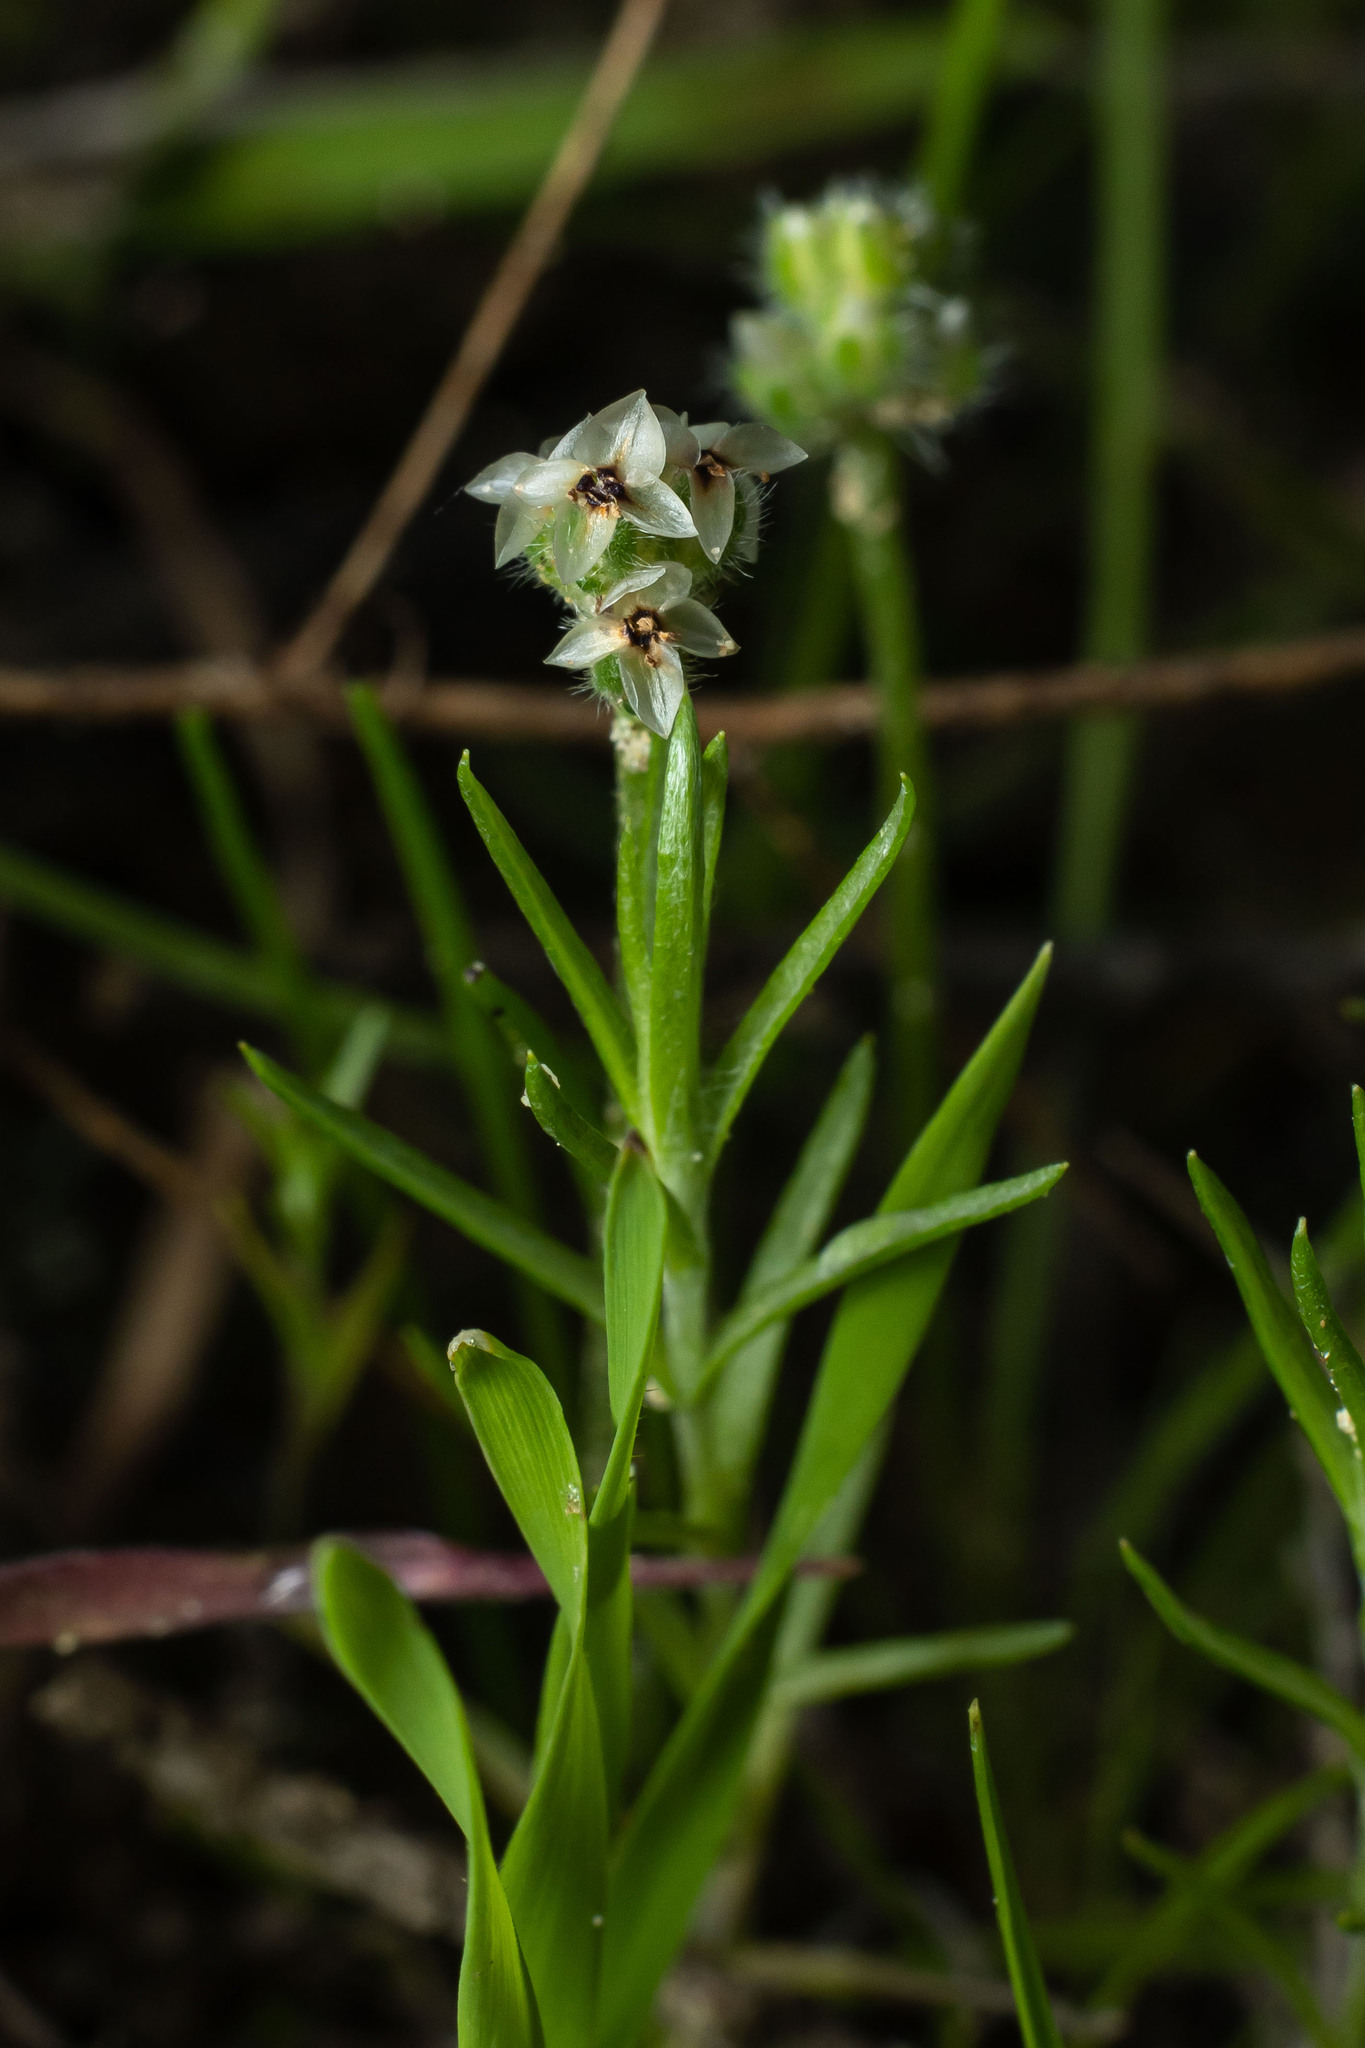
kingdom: Plantae
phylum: Tracheophyta
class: Magnoliopsida
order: Lamiales
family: Plantaginaceae
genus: Plantago
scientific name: Plantago erecta
